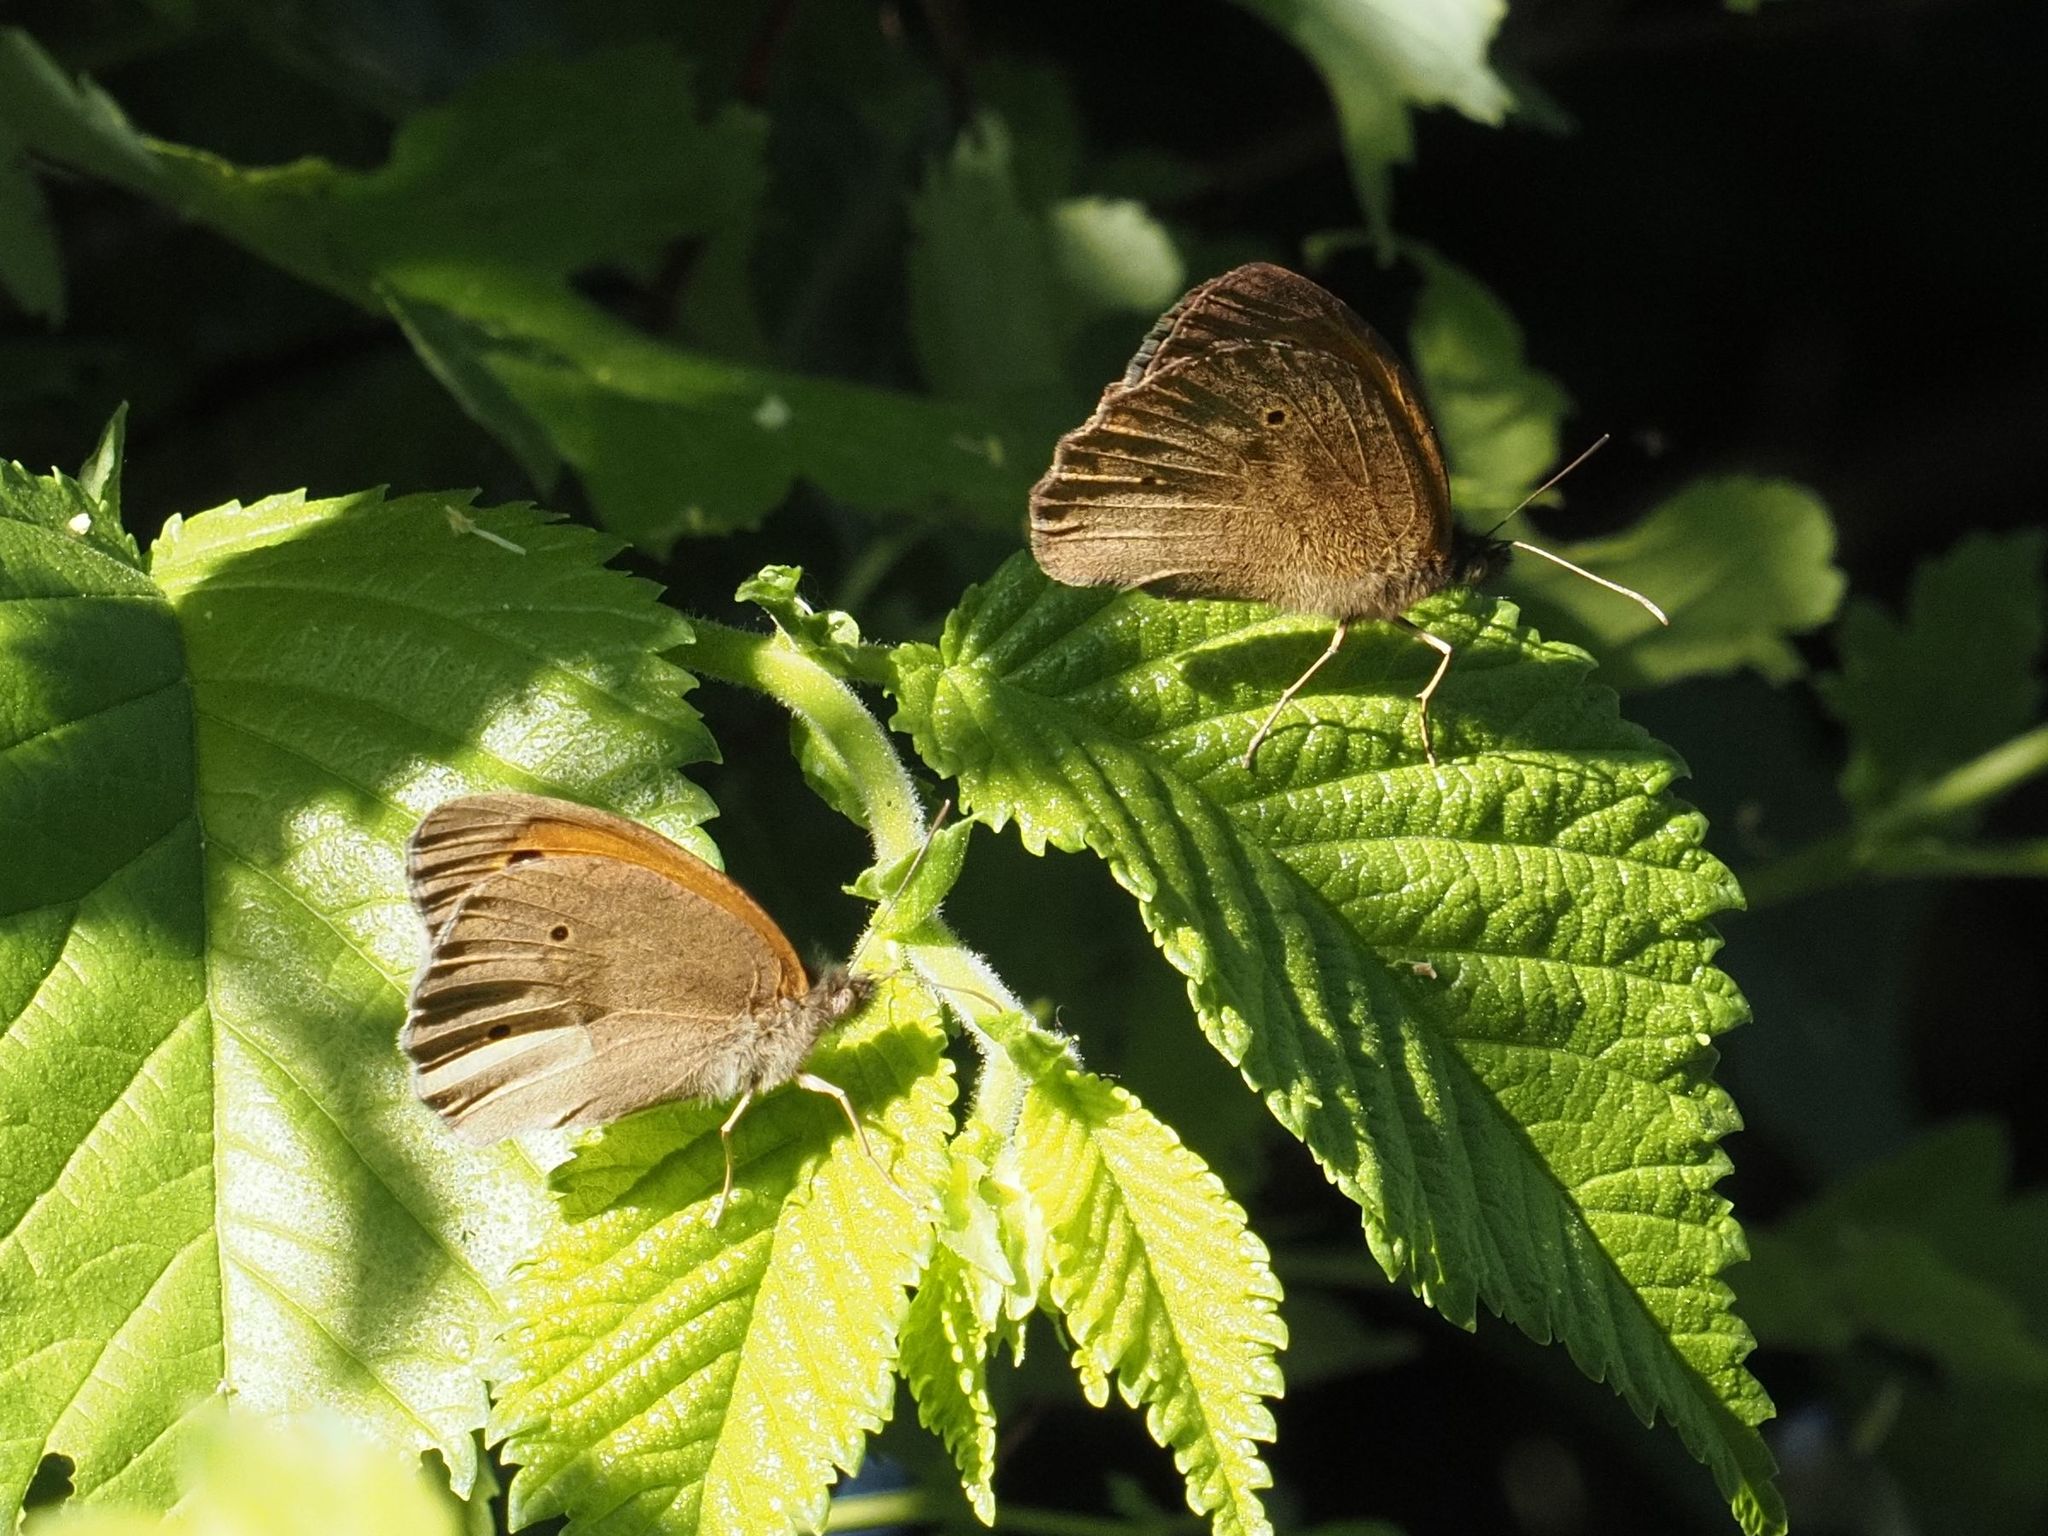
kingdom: Animalia
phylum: Arthropoda
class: Insecta
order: Lepidoptera
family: Nymphalidae
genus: Maniola
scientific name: Maniola jurtina
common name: Meadow brown
